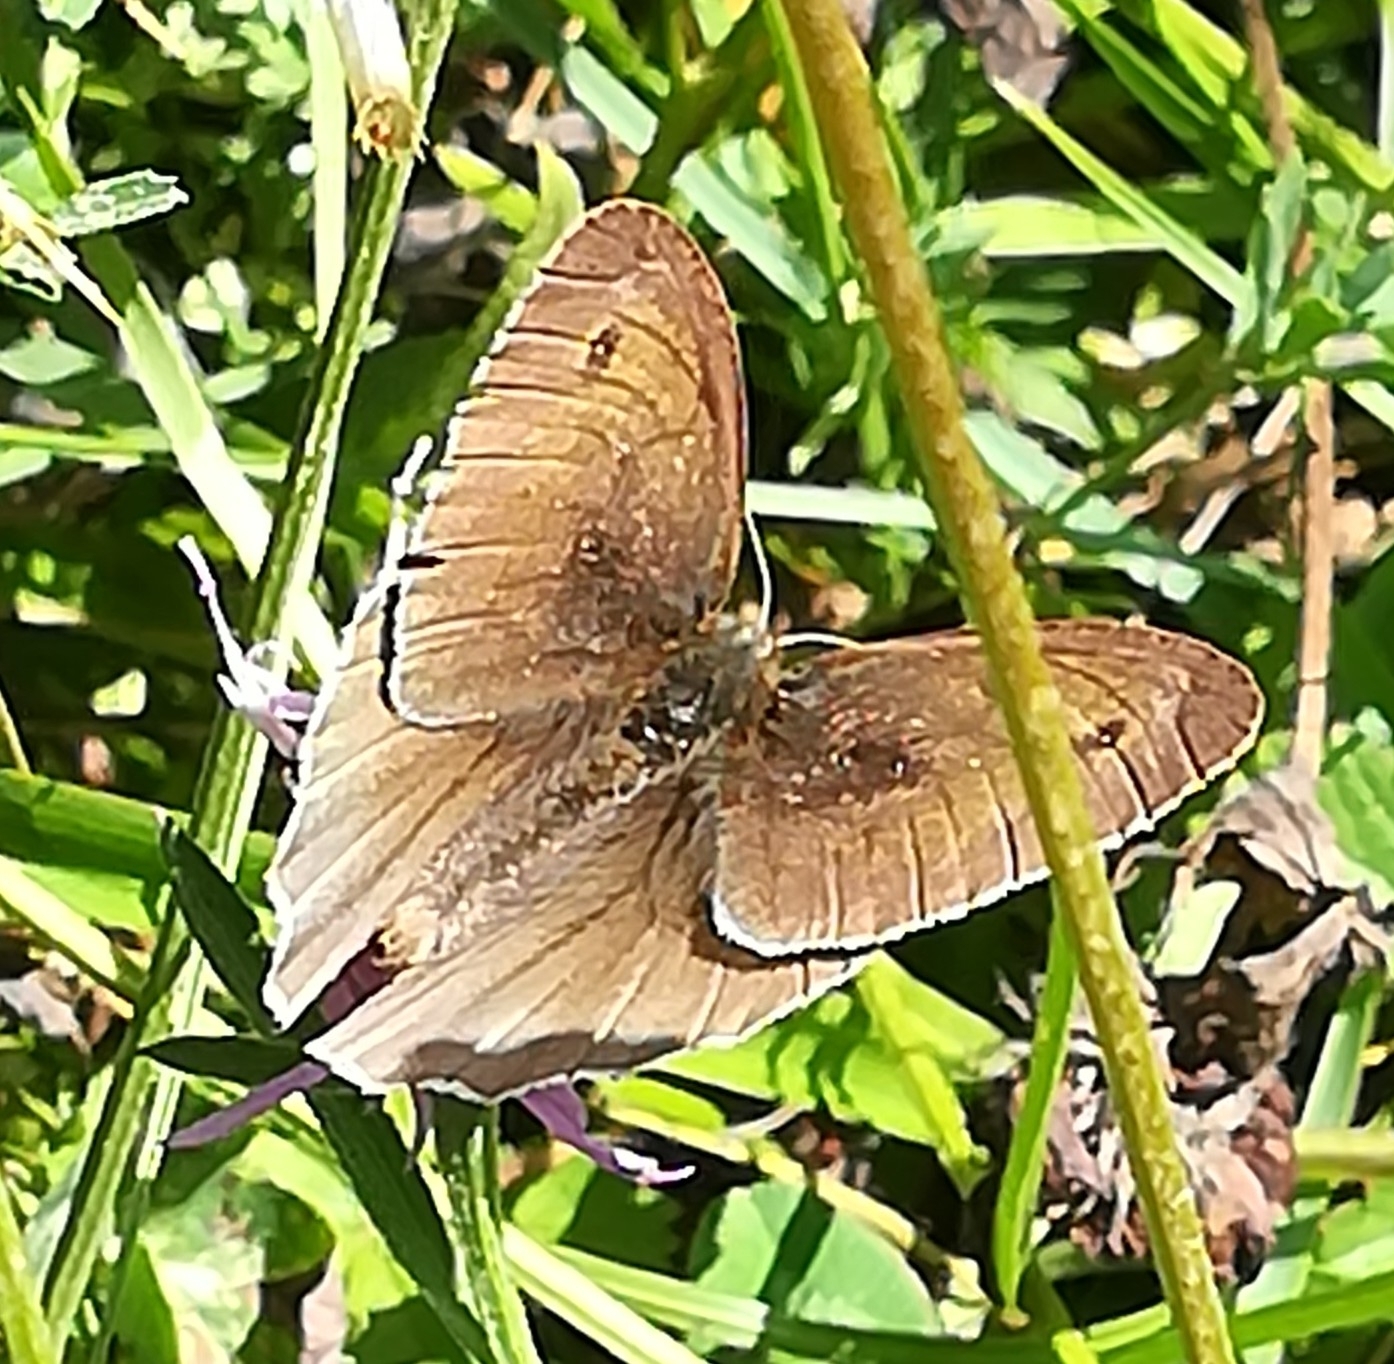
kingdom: Animalia
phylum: Arthropoda
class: Insecta
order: Lepidoptera
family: Nymphalidae
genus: Maniola
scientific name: Maniola jurtina
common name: Meadow brown
